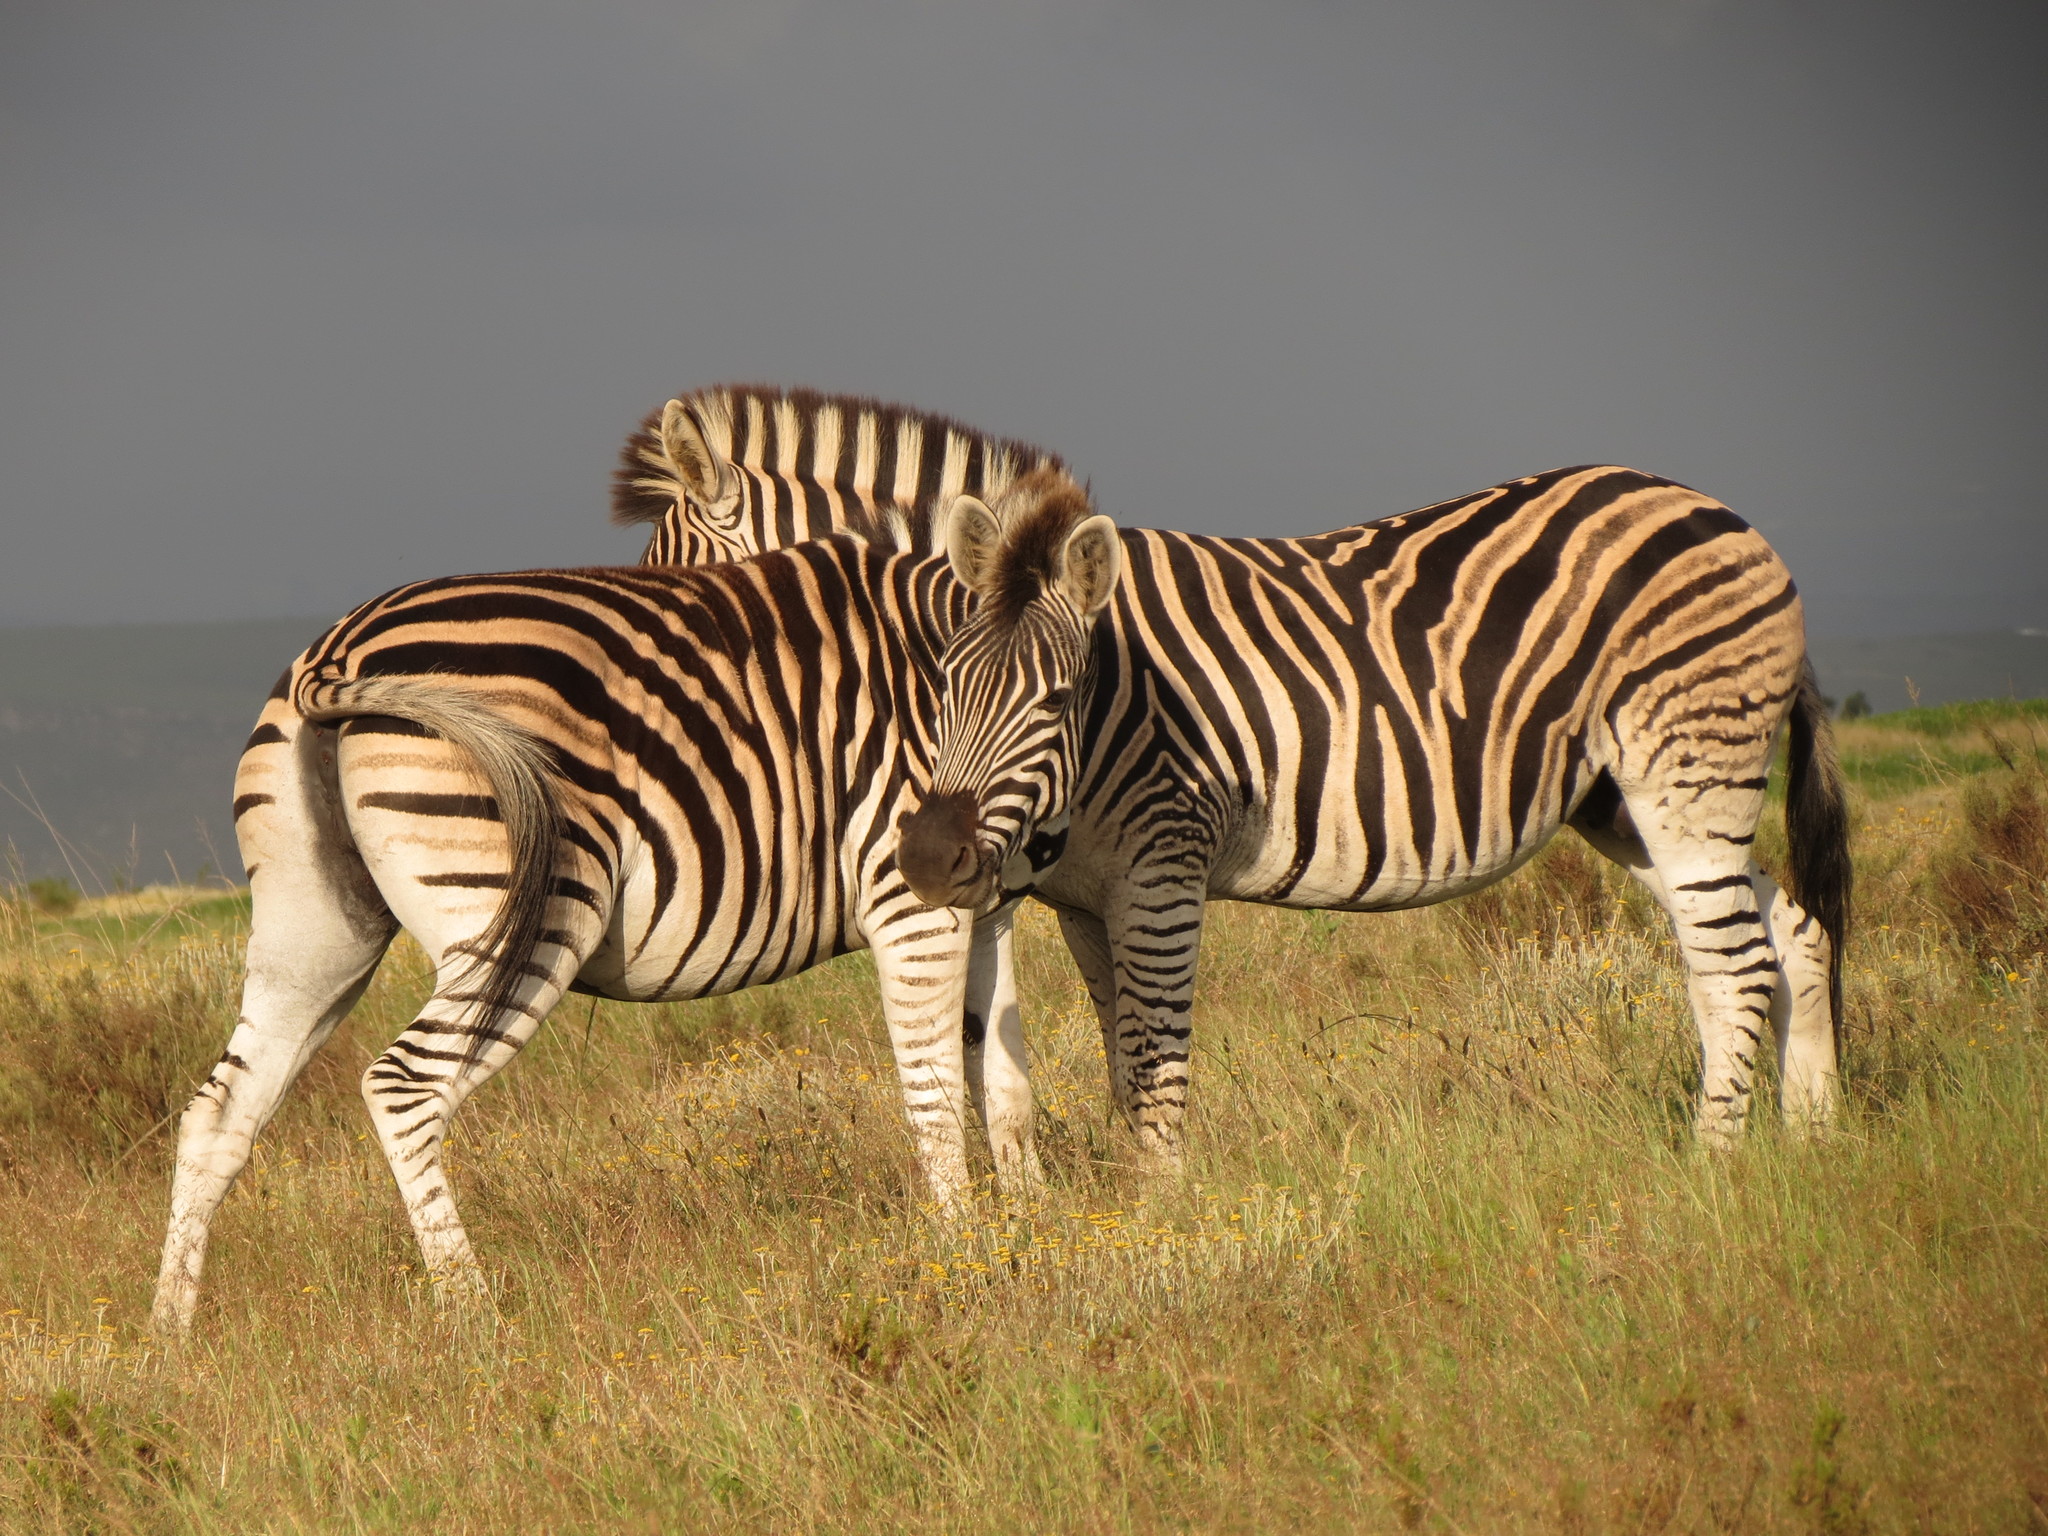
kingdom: Animalia
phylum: Chordata
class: Mammalia
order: Perissodactyla
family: Equidae
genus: Equus
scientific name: Equus quagga
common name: Plains zebra
